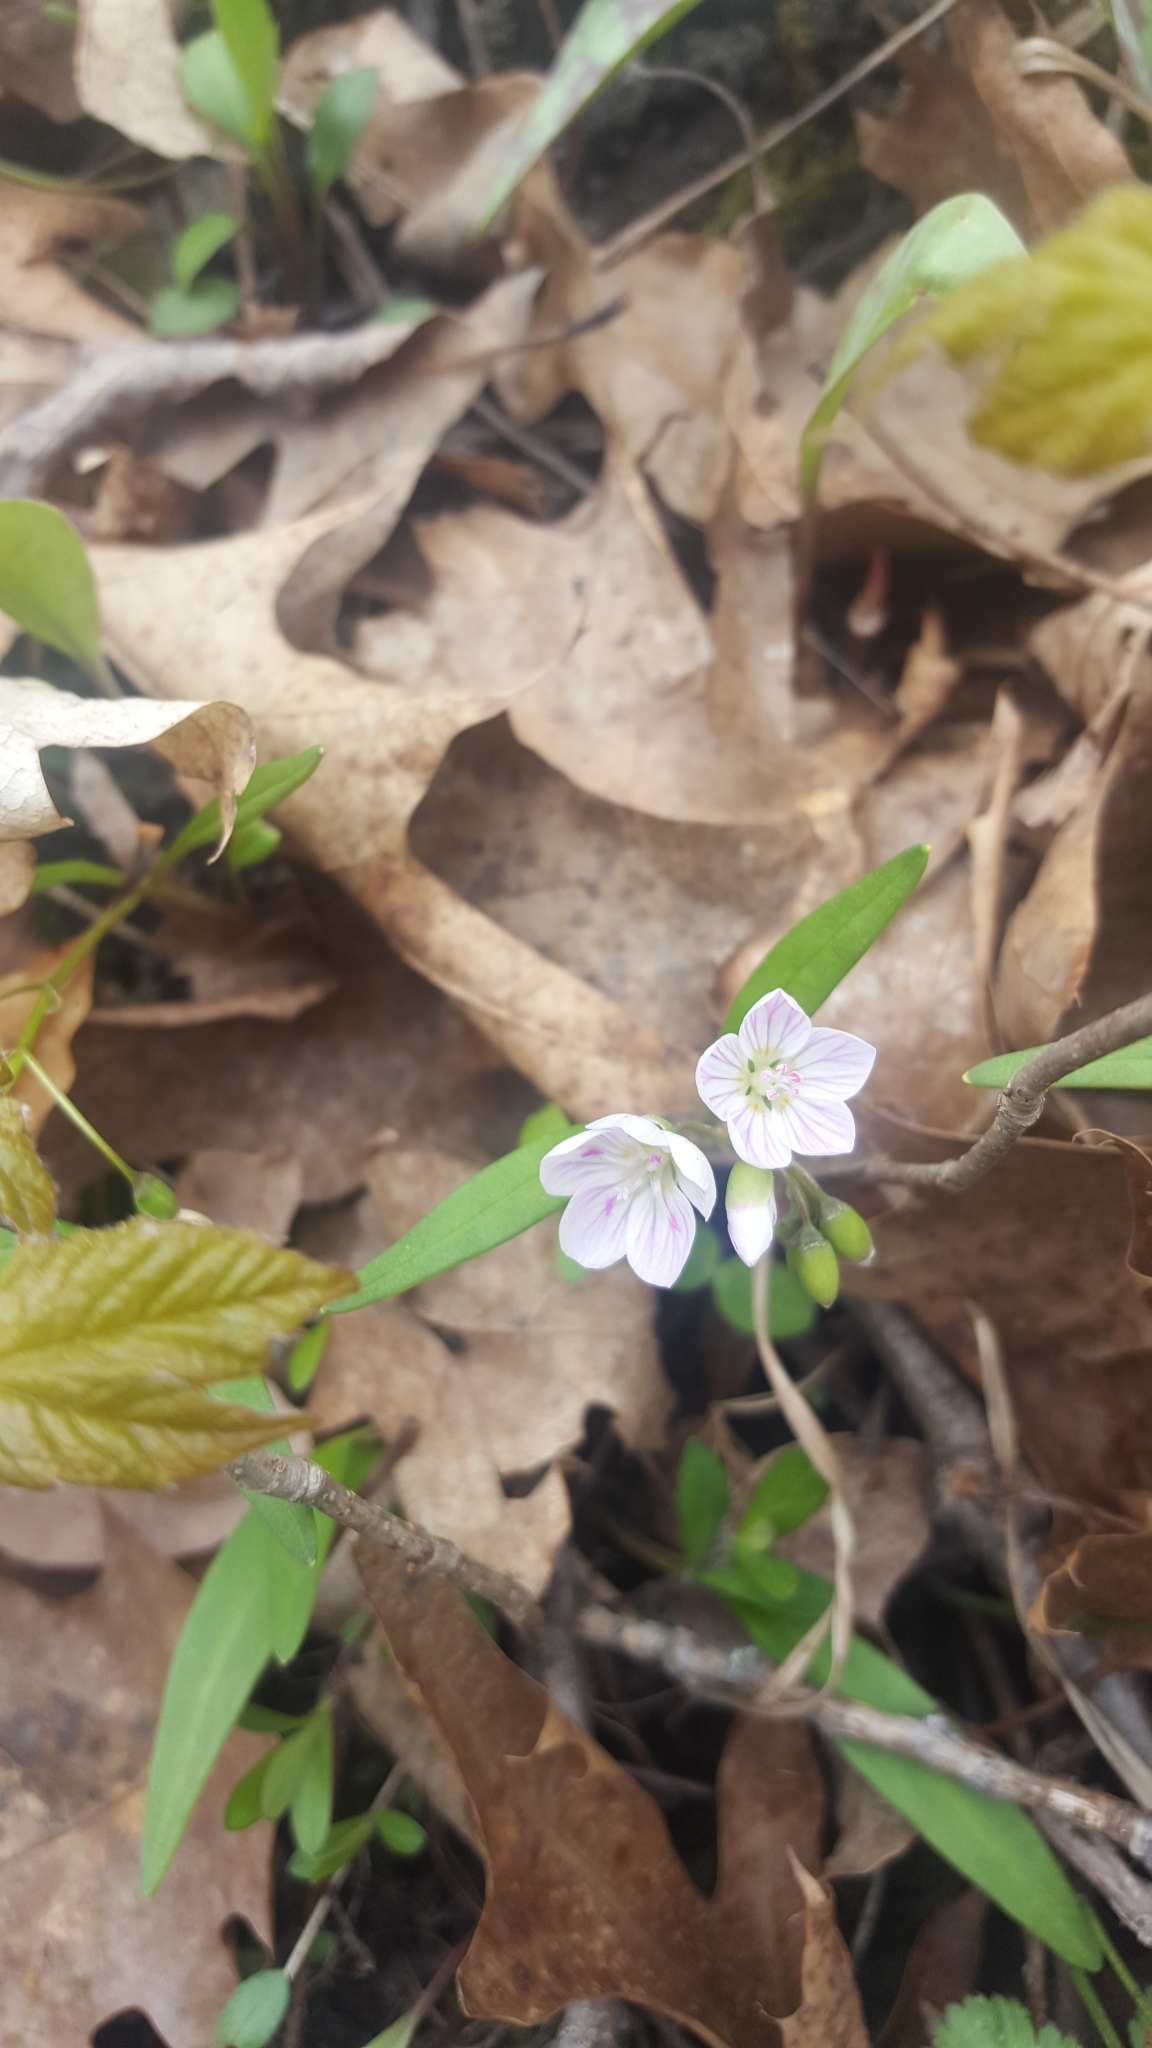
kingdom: Plantae
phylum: Tracheophyta
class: Magnoliopsida
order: Caryophyllales
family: Montiaceae
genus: Claytonia
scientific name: Claytonia virginica
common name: Virginia springbeauty
